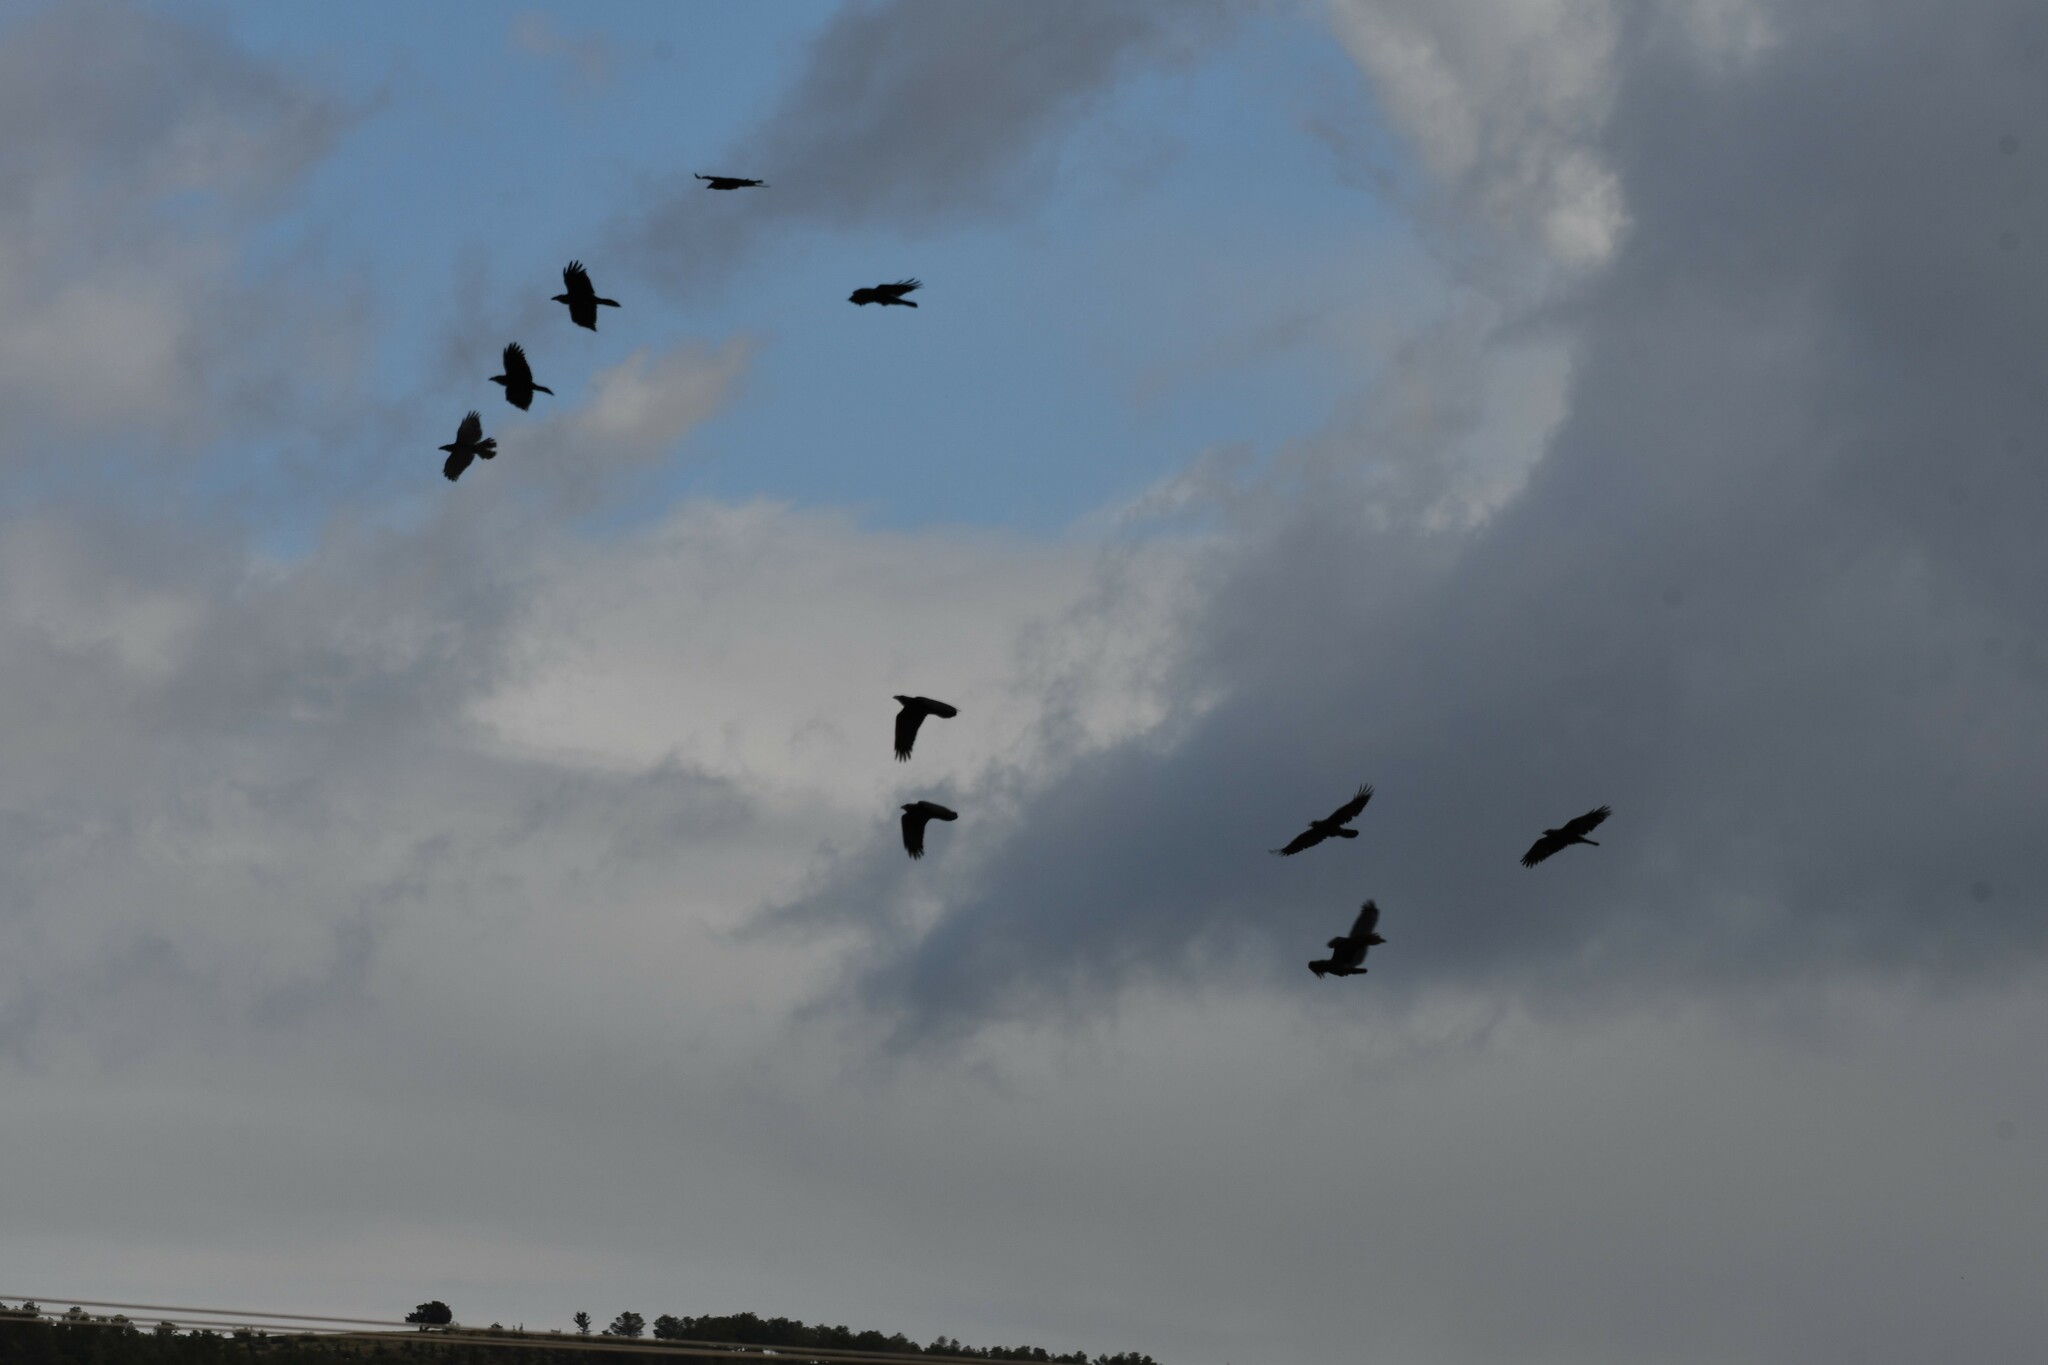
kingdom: Animalia
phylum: Chordata
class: Aves
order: Passeriformes
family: Corvidae
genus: Corvus
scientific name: Corvus corax
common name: Common raven
